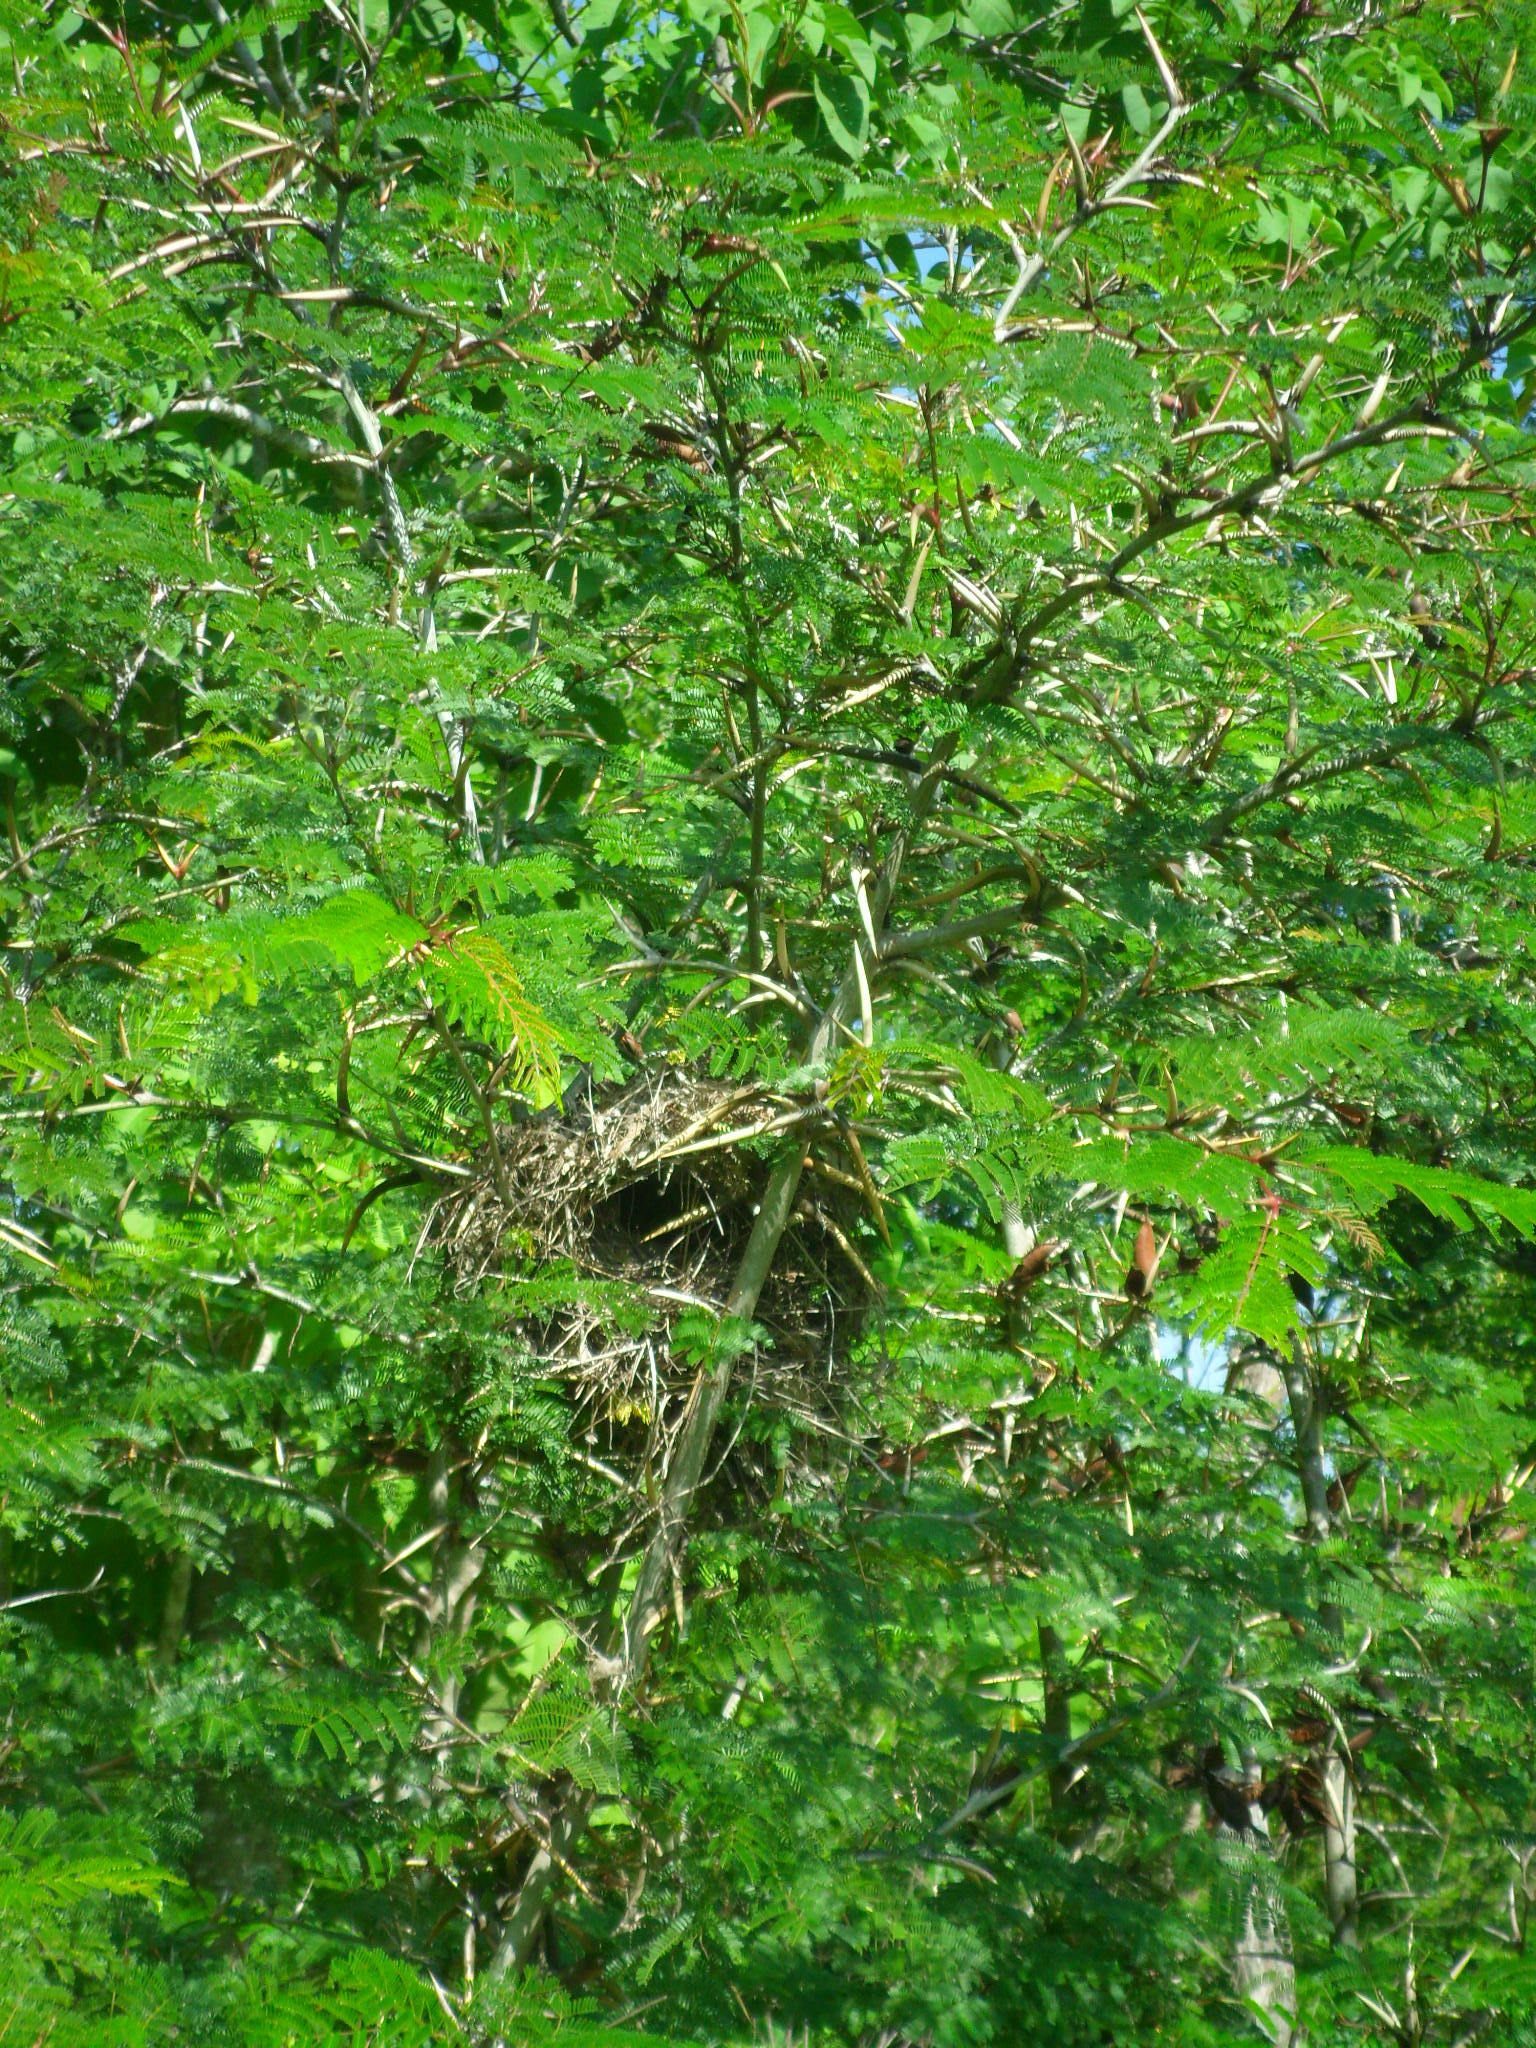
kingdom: Plantae
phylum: Tracheophyta
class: Magnoliopsida
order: Fabales
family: Fabaceae
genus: Vachellia
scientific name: Vachellia cornigera
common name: Bullhorn wattle
